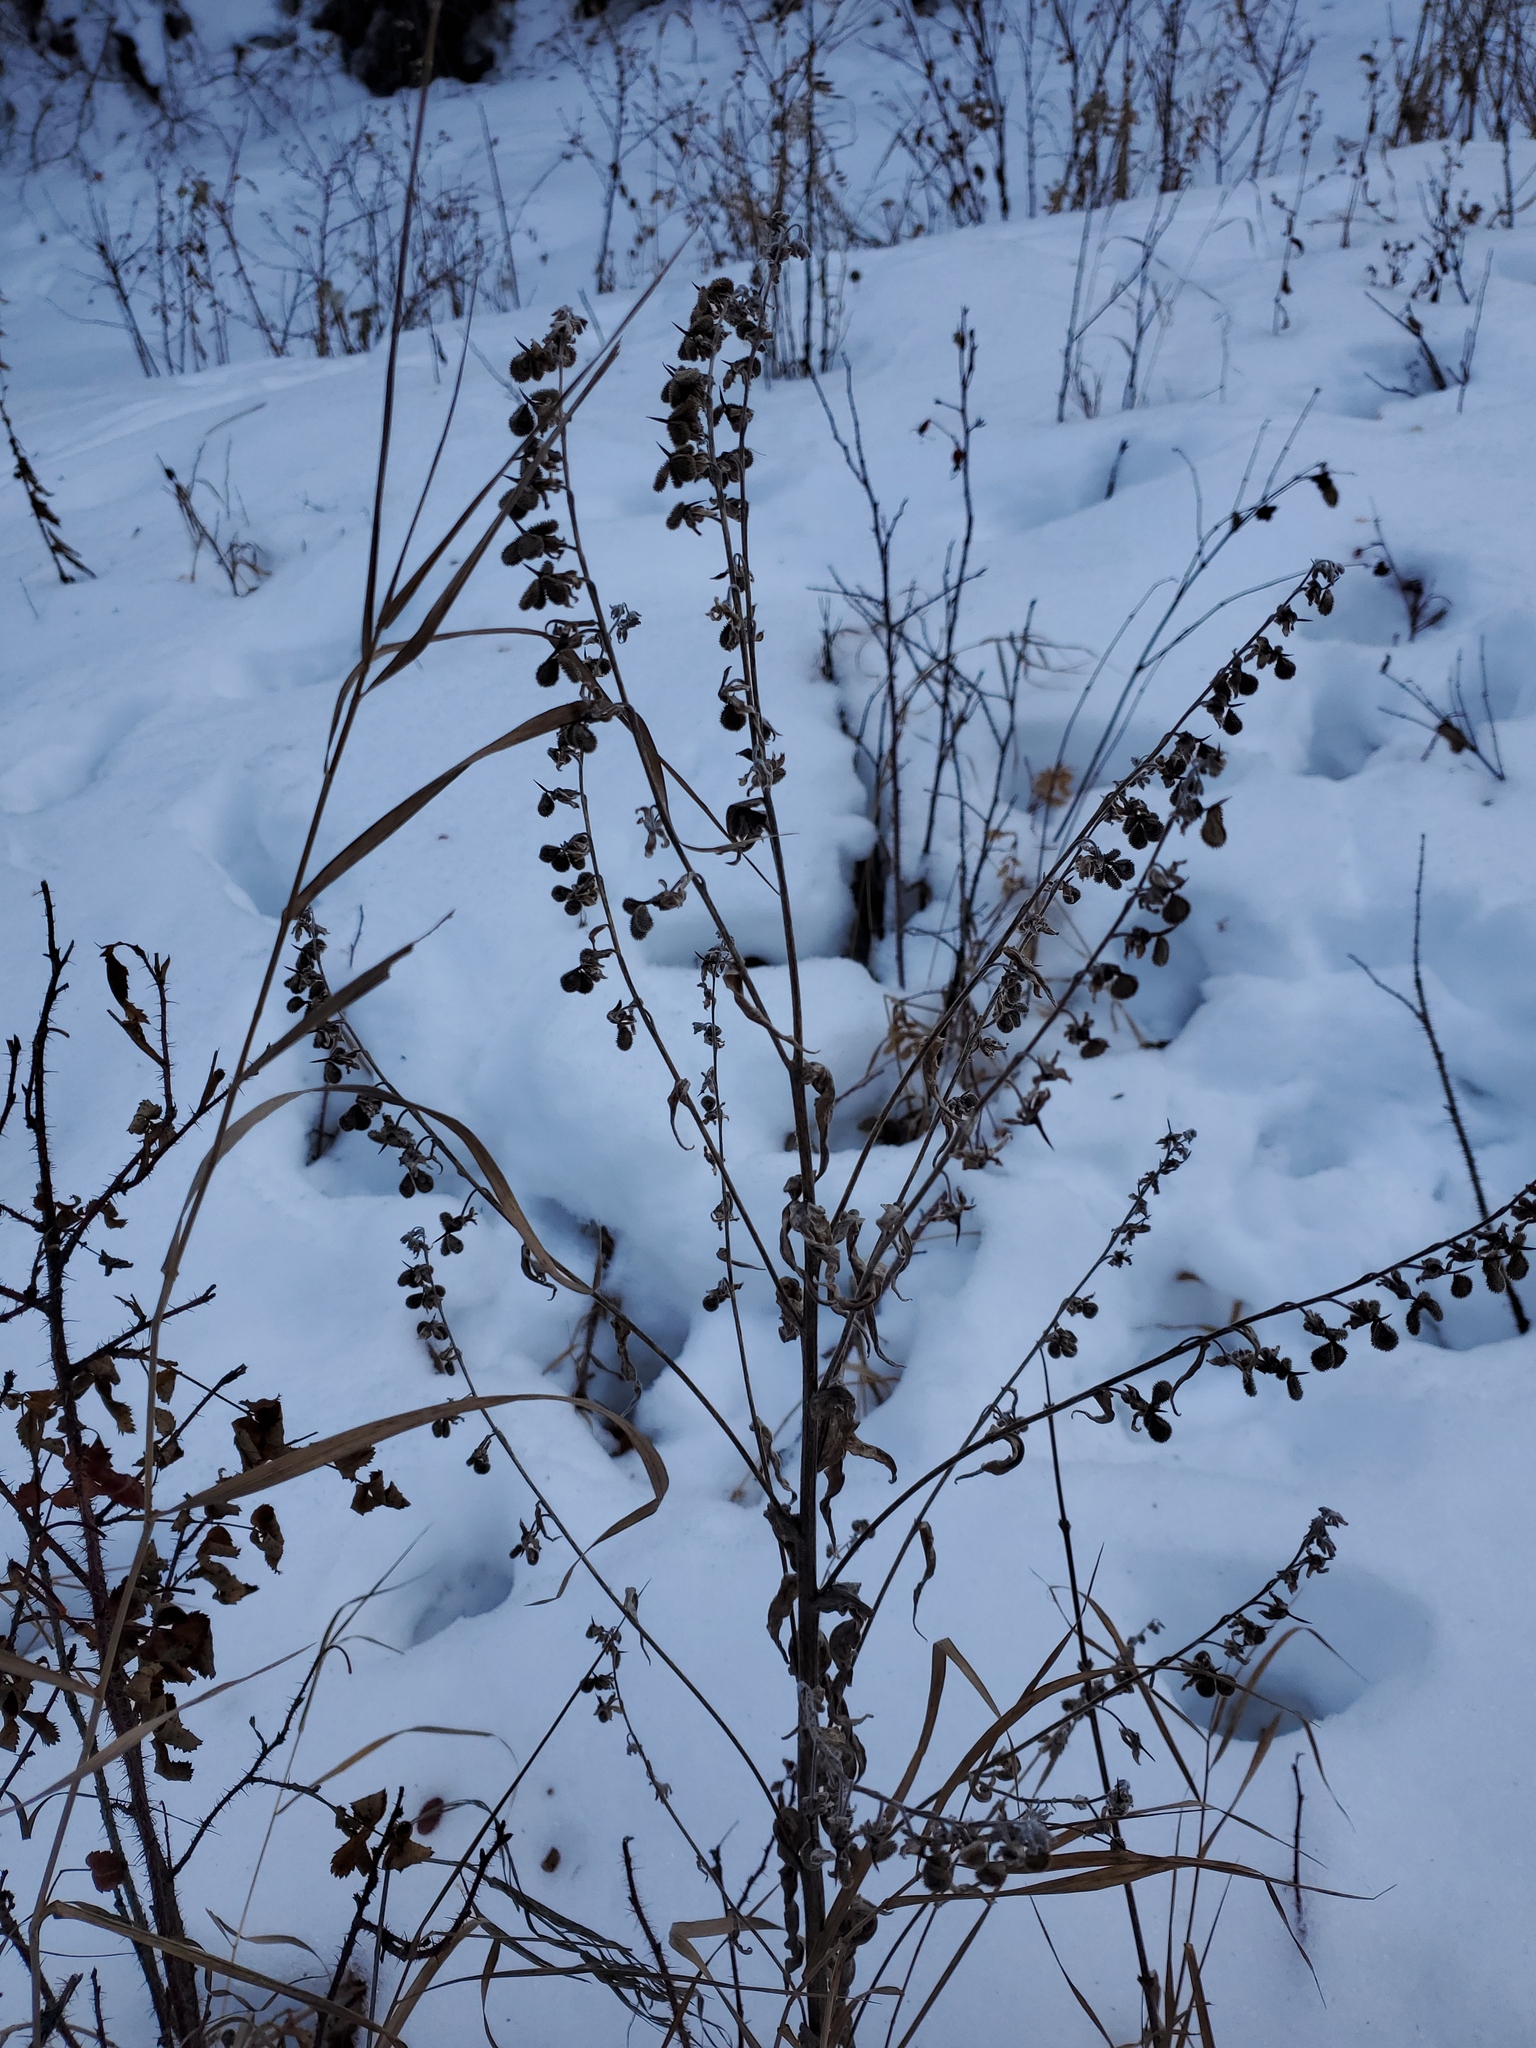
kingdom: Plantae
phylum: Tracheophyta
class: Magnoliopsida
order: Boraginales
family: Boraginaceae
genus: Cynoglossum
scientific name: Cynoglossum officinale
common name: Hound's-tongue
